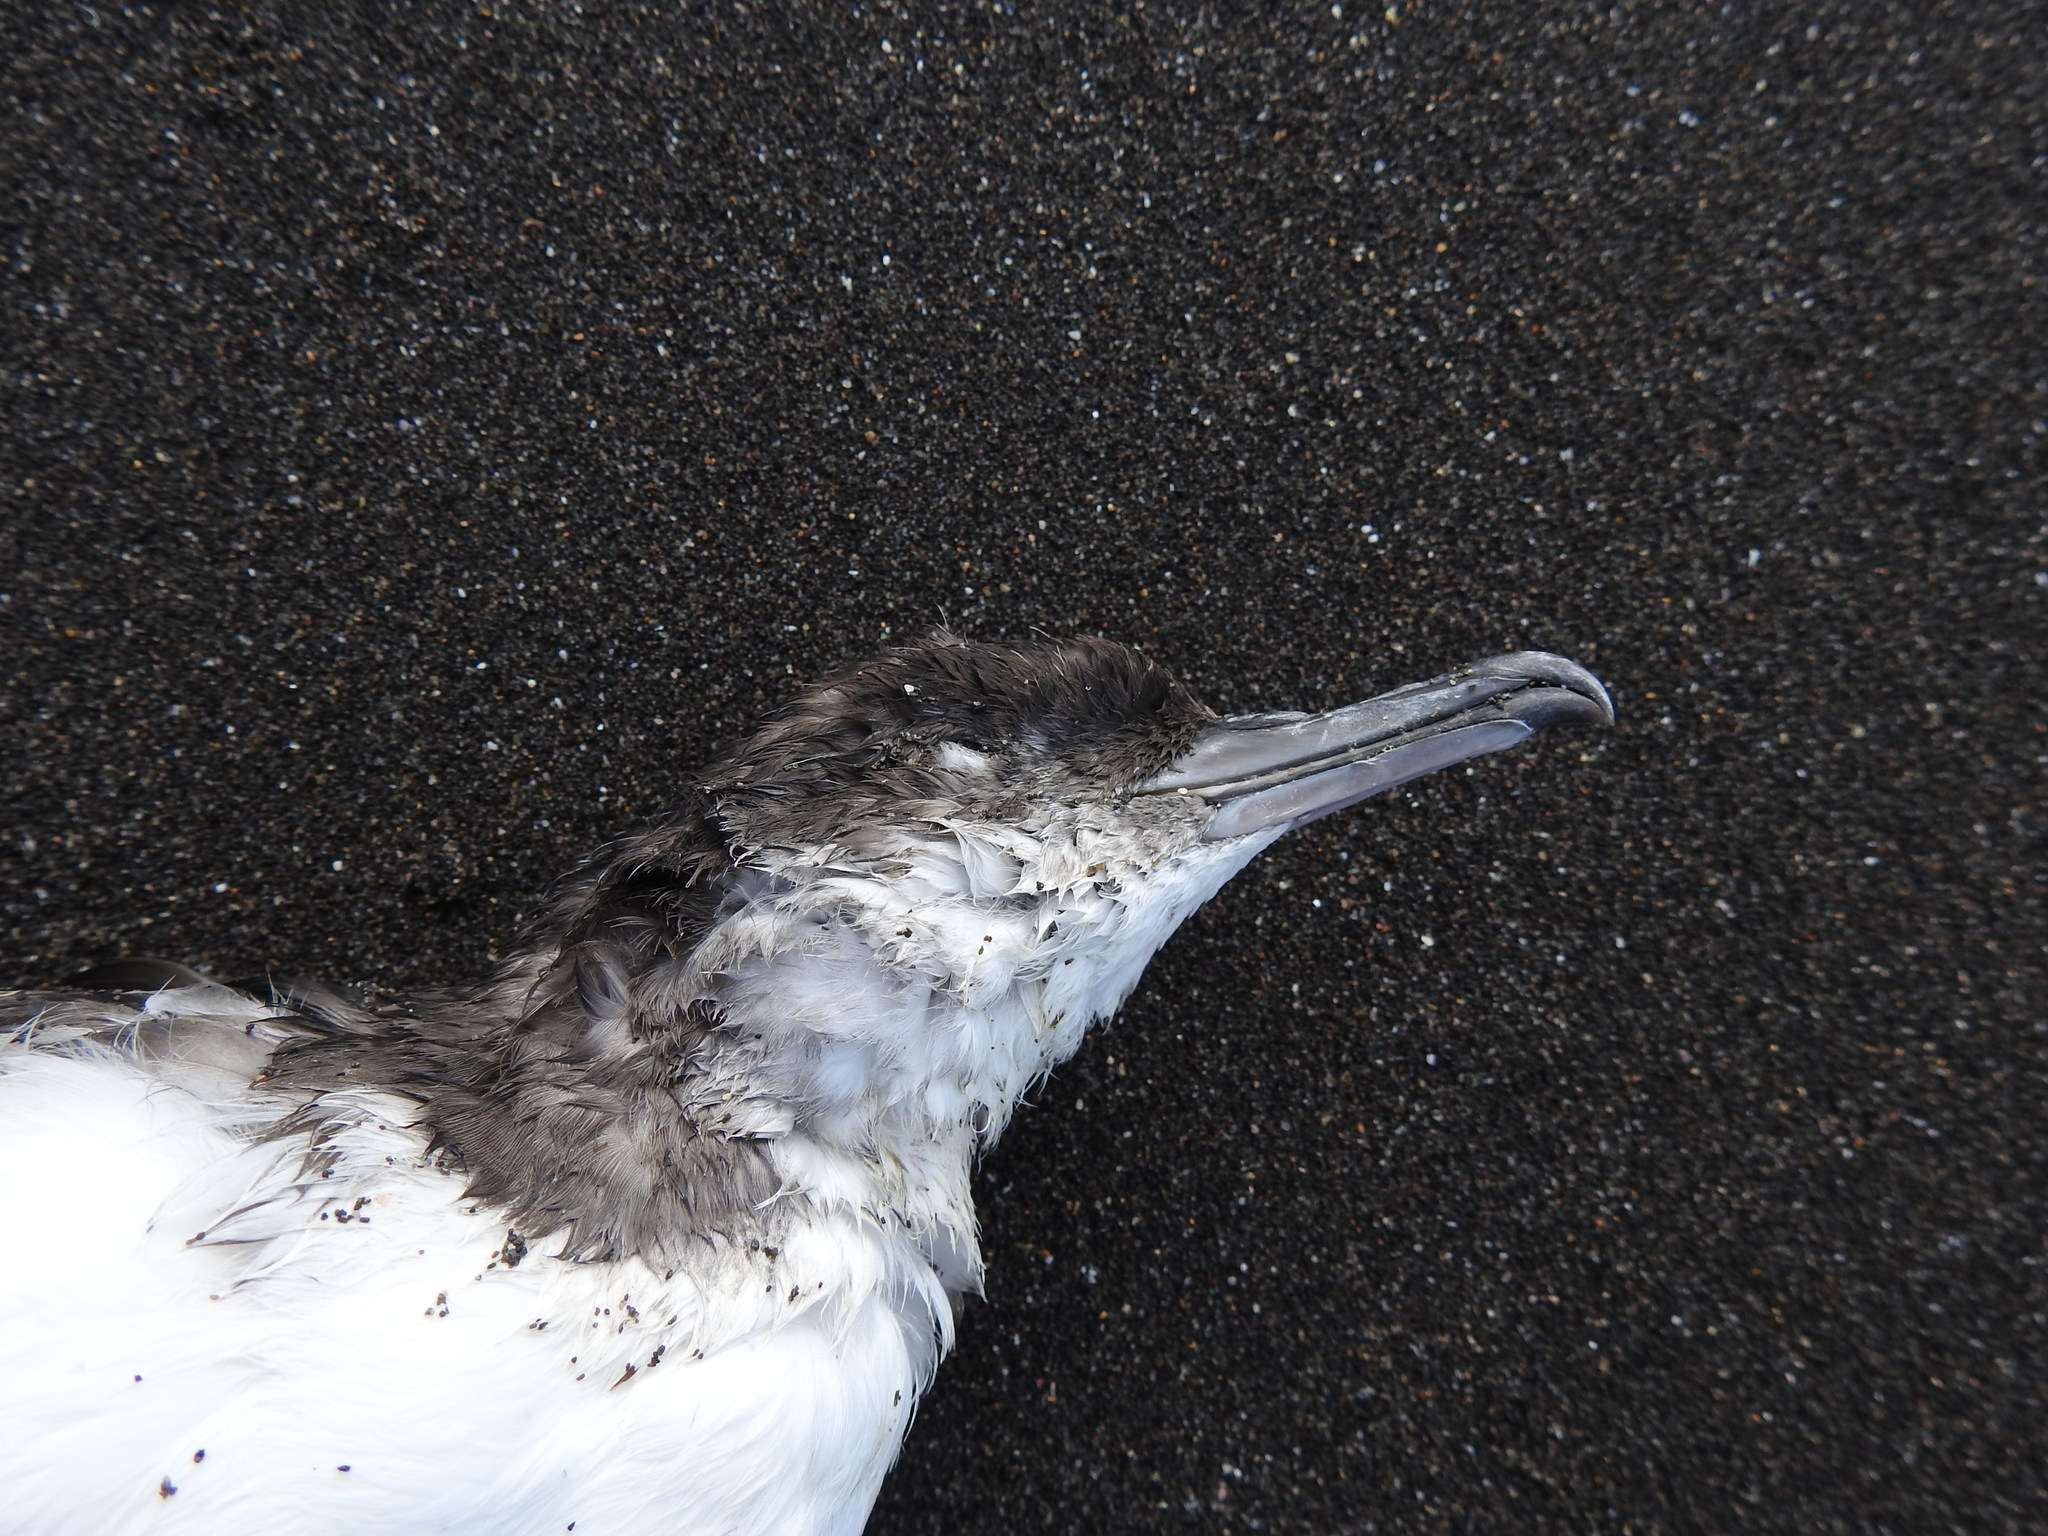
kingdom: Animalia
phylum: Chordata
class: Aves
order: Procellariiformes
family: Procellariidae
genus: Puffinus
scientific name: Puffinus gavia
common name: Fluttering shearwater
